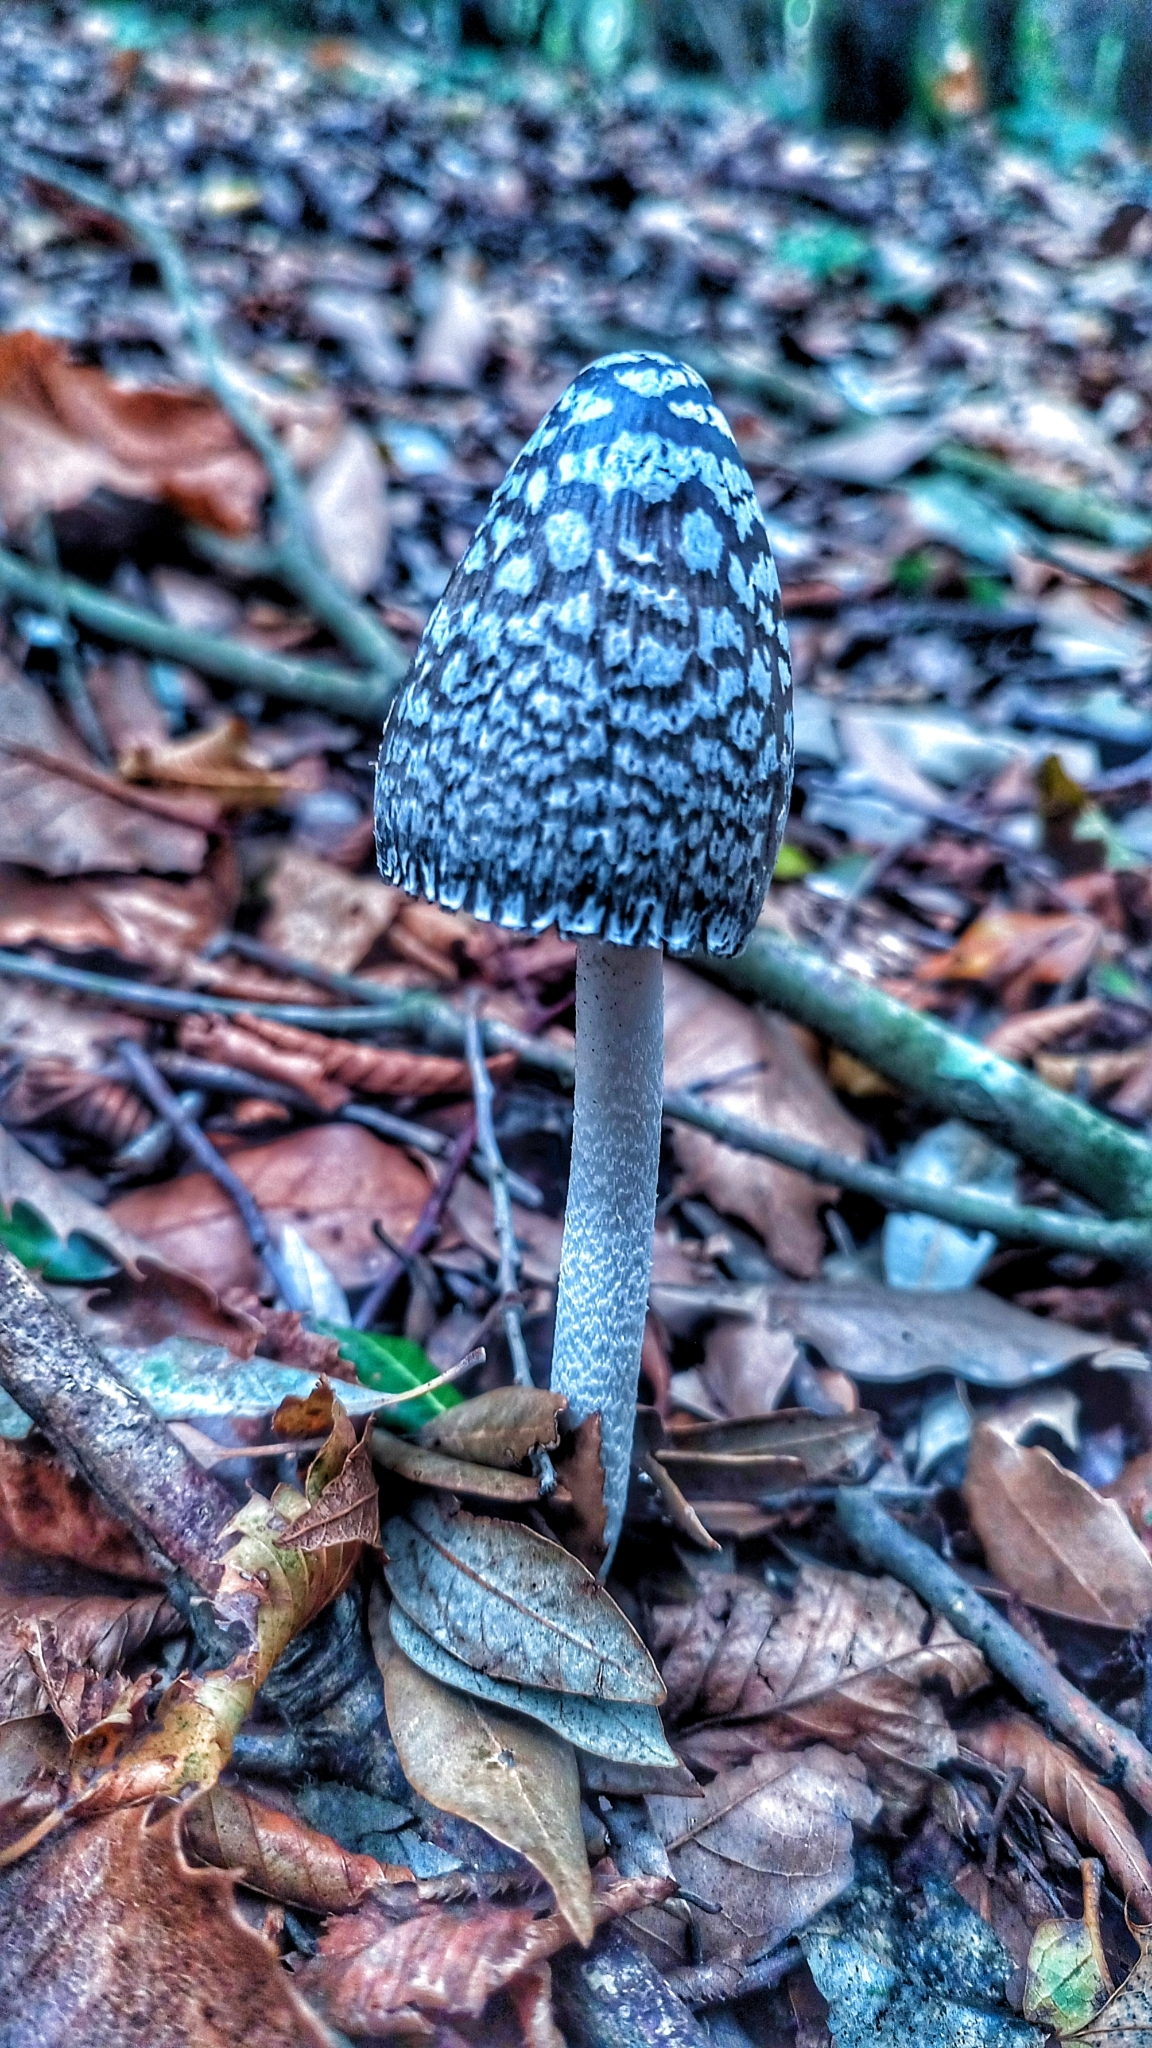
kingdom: Fungi
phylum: Basidiomycota
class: Agaricomycetes
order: Agaricales
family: Psathyrellaceae
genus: Coprinopsis
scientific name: Coprinopsis picacea
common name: Magpie inkcap
